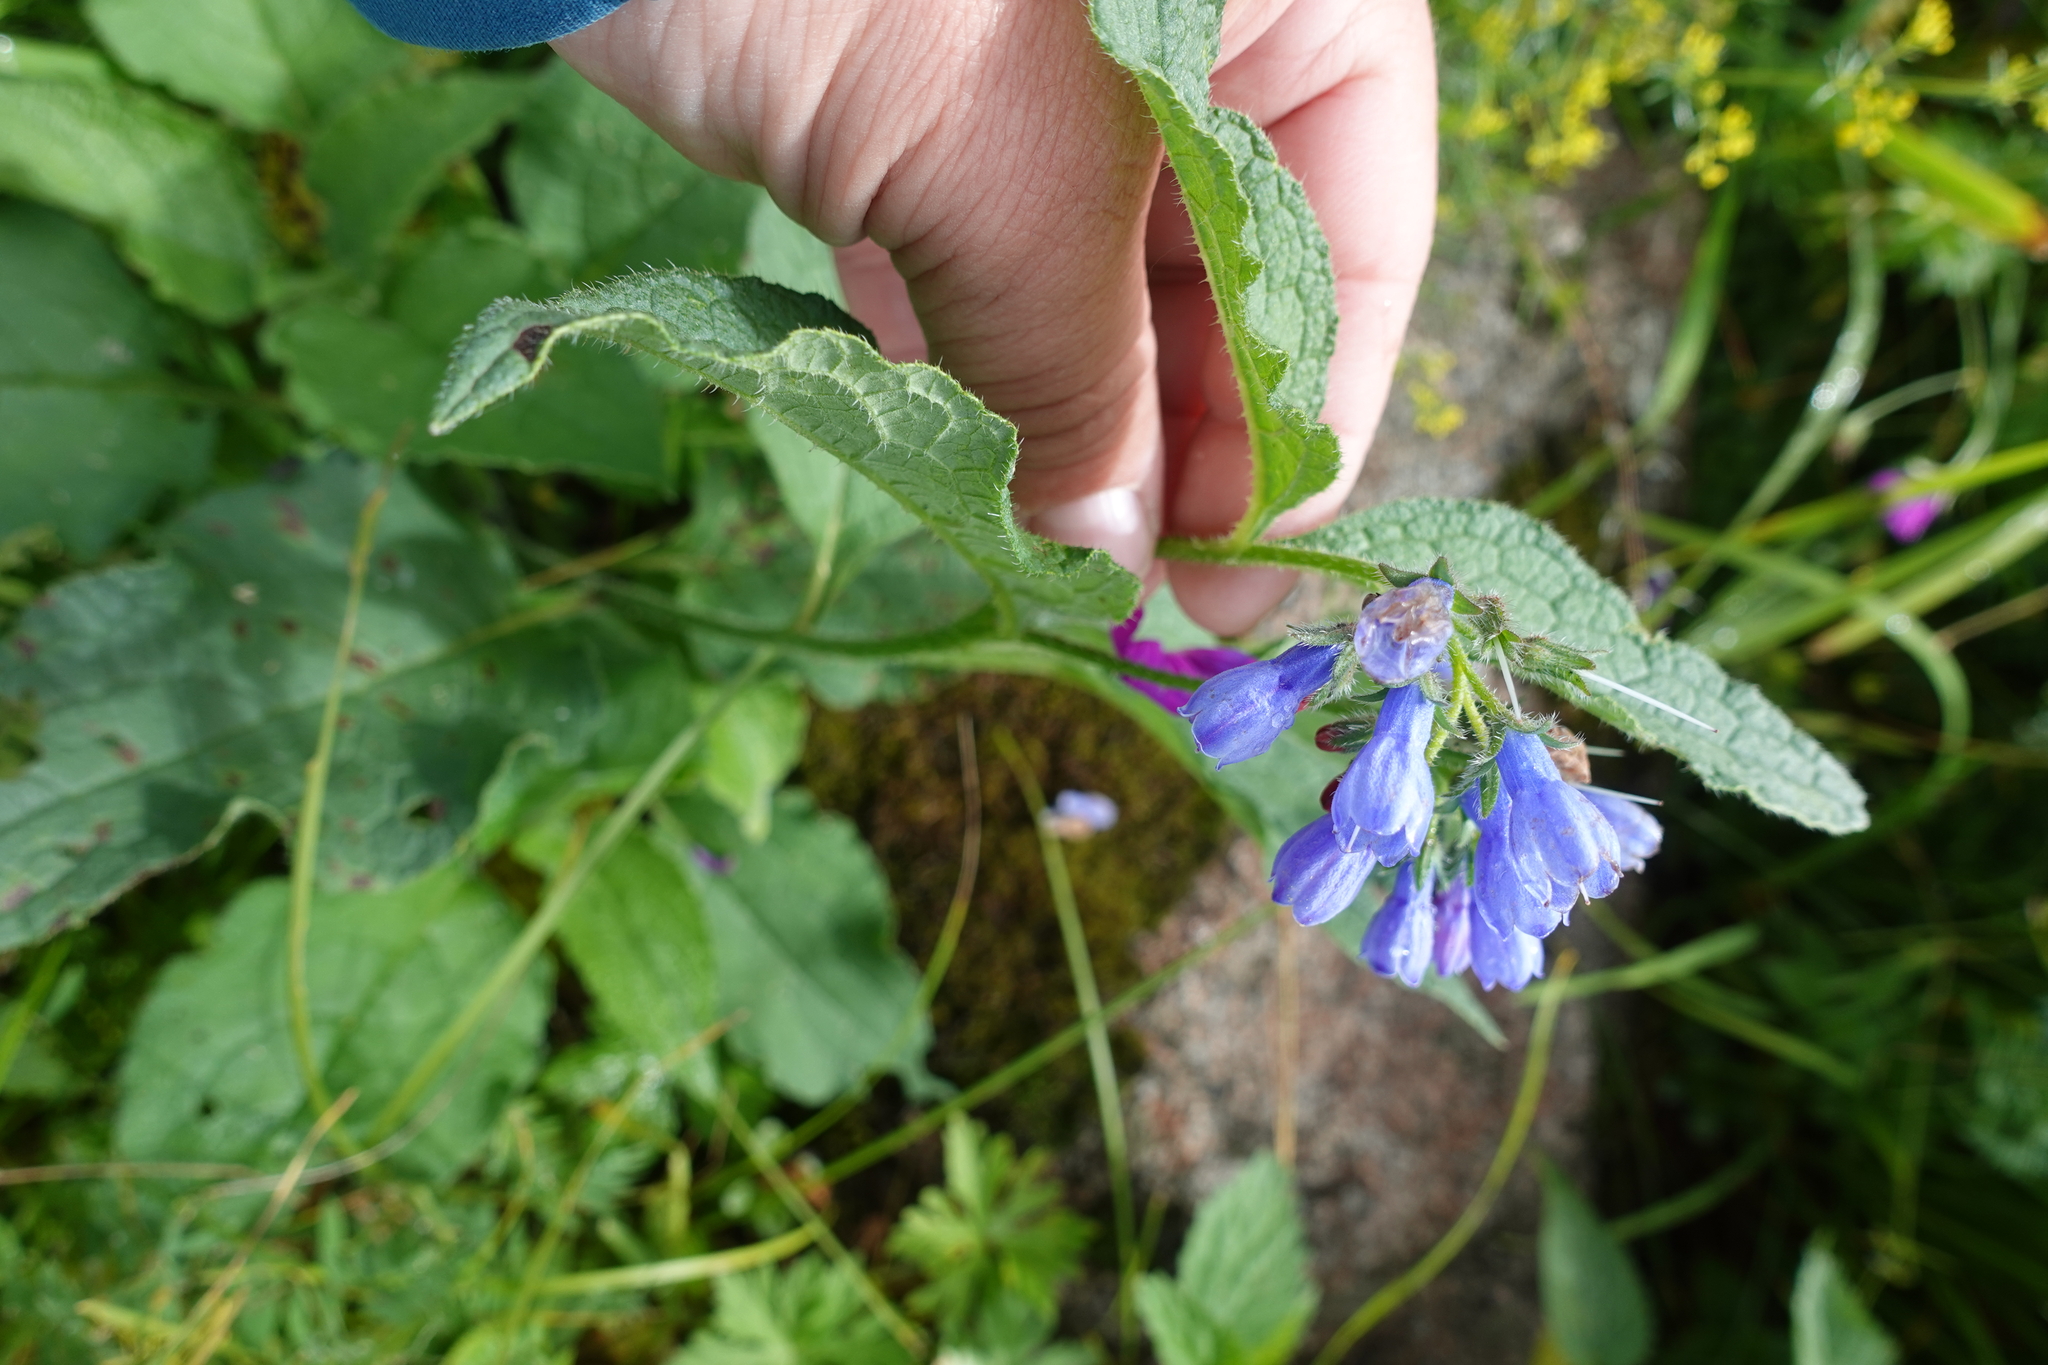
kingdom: Plantae
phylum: Tracheophyta
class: Magnoliopsida
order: Boraginales
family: Boraginaceae
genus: Symphytum
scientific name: Symphytum asperum
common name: Prickly comfrey
